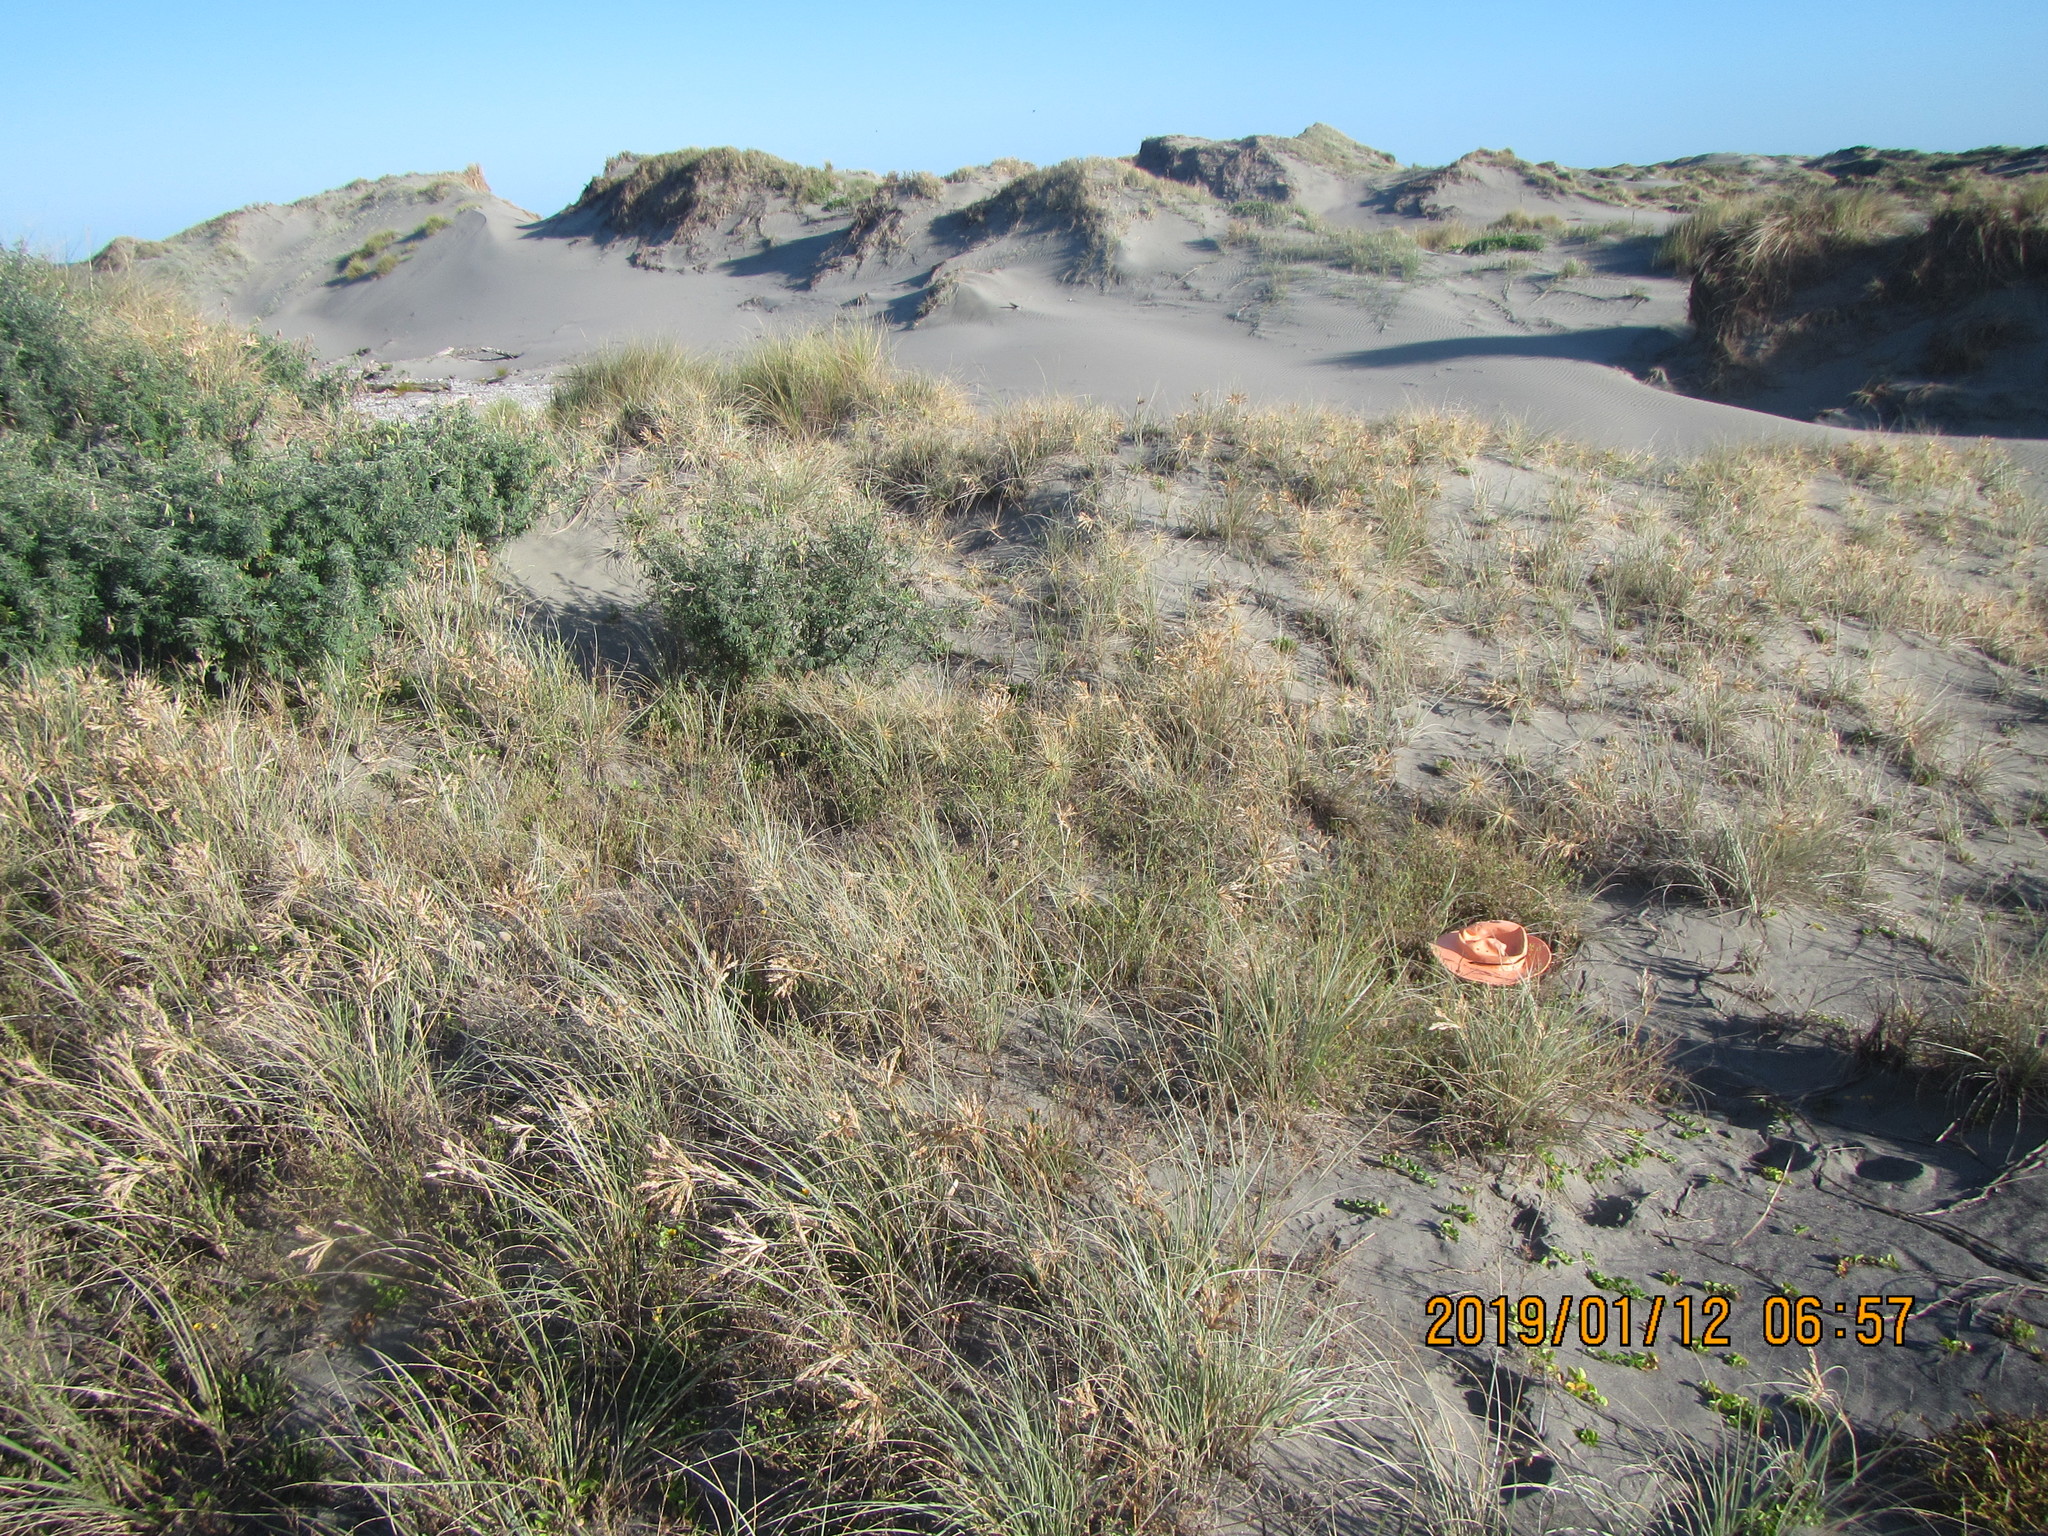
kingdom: Plantae
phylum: Tracheophyta
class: Magnoliopsida
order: Fabales
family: Fabaceae
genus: Melilotus
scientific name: Melilotus indicus
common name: Small melilot
